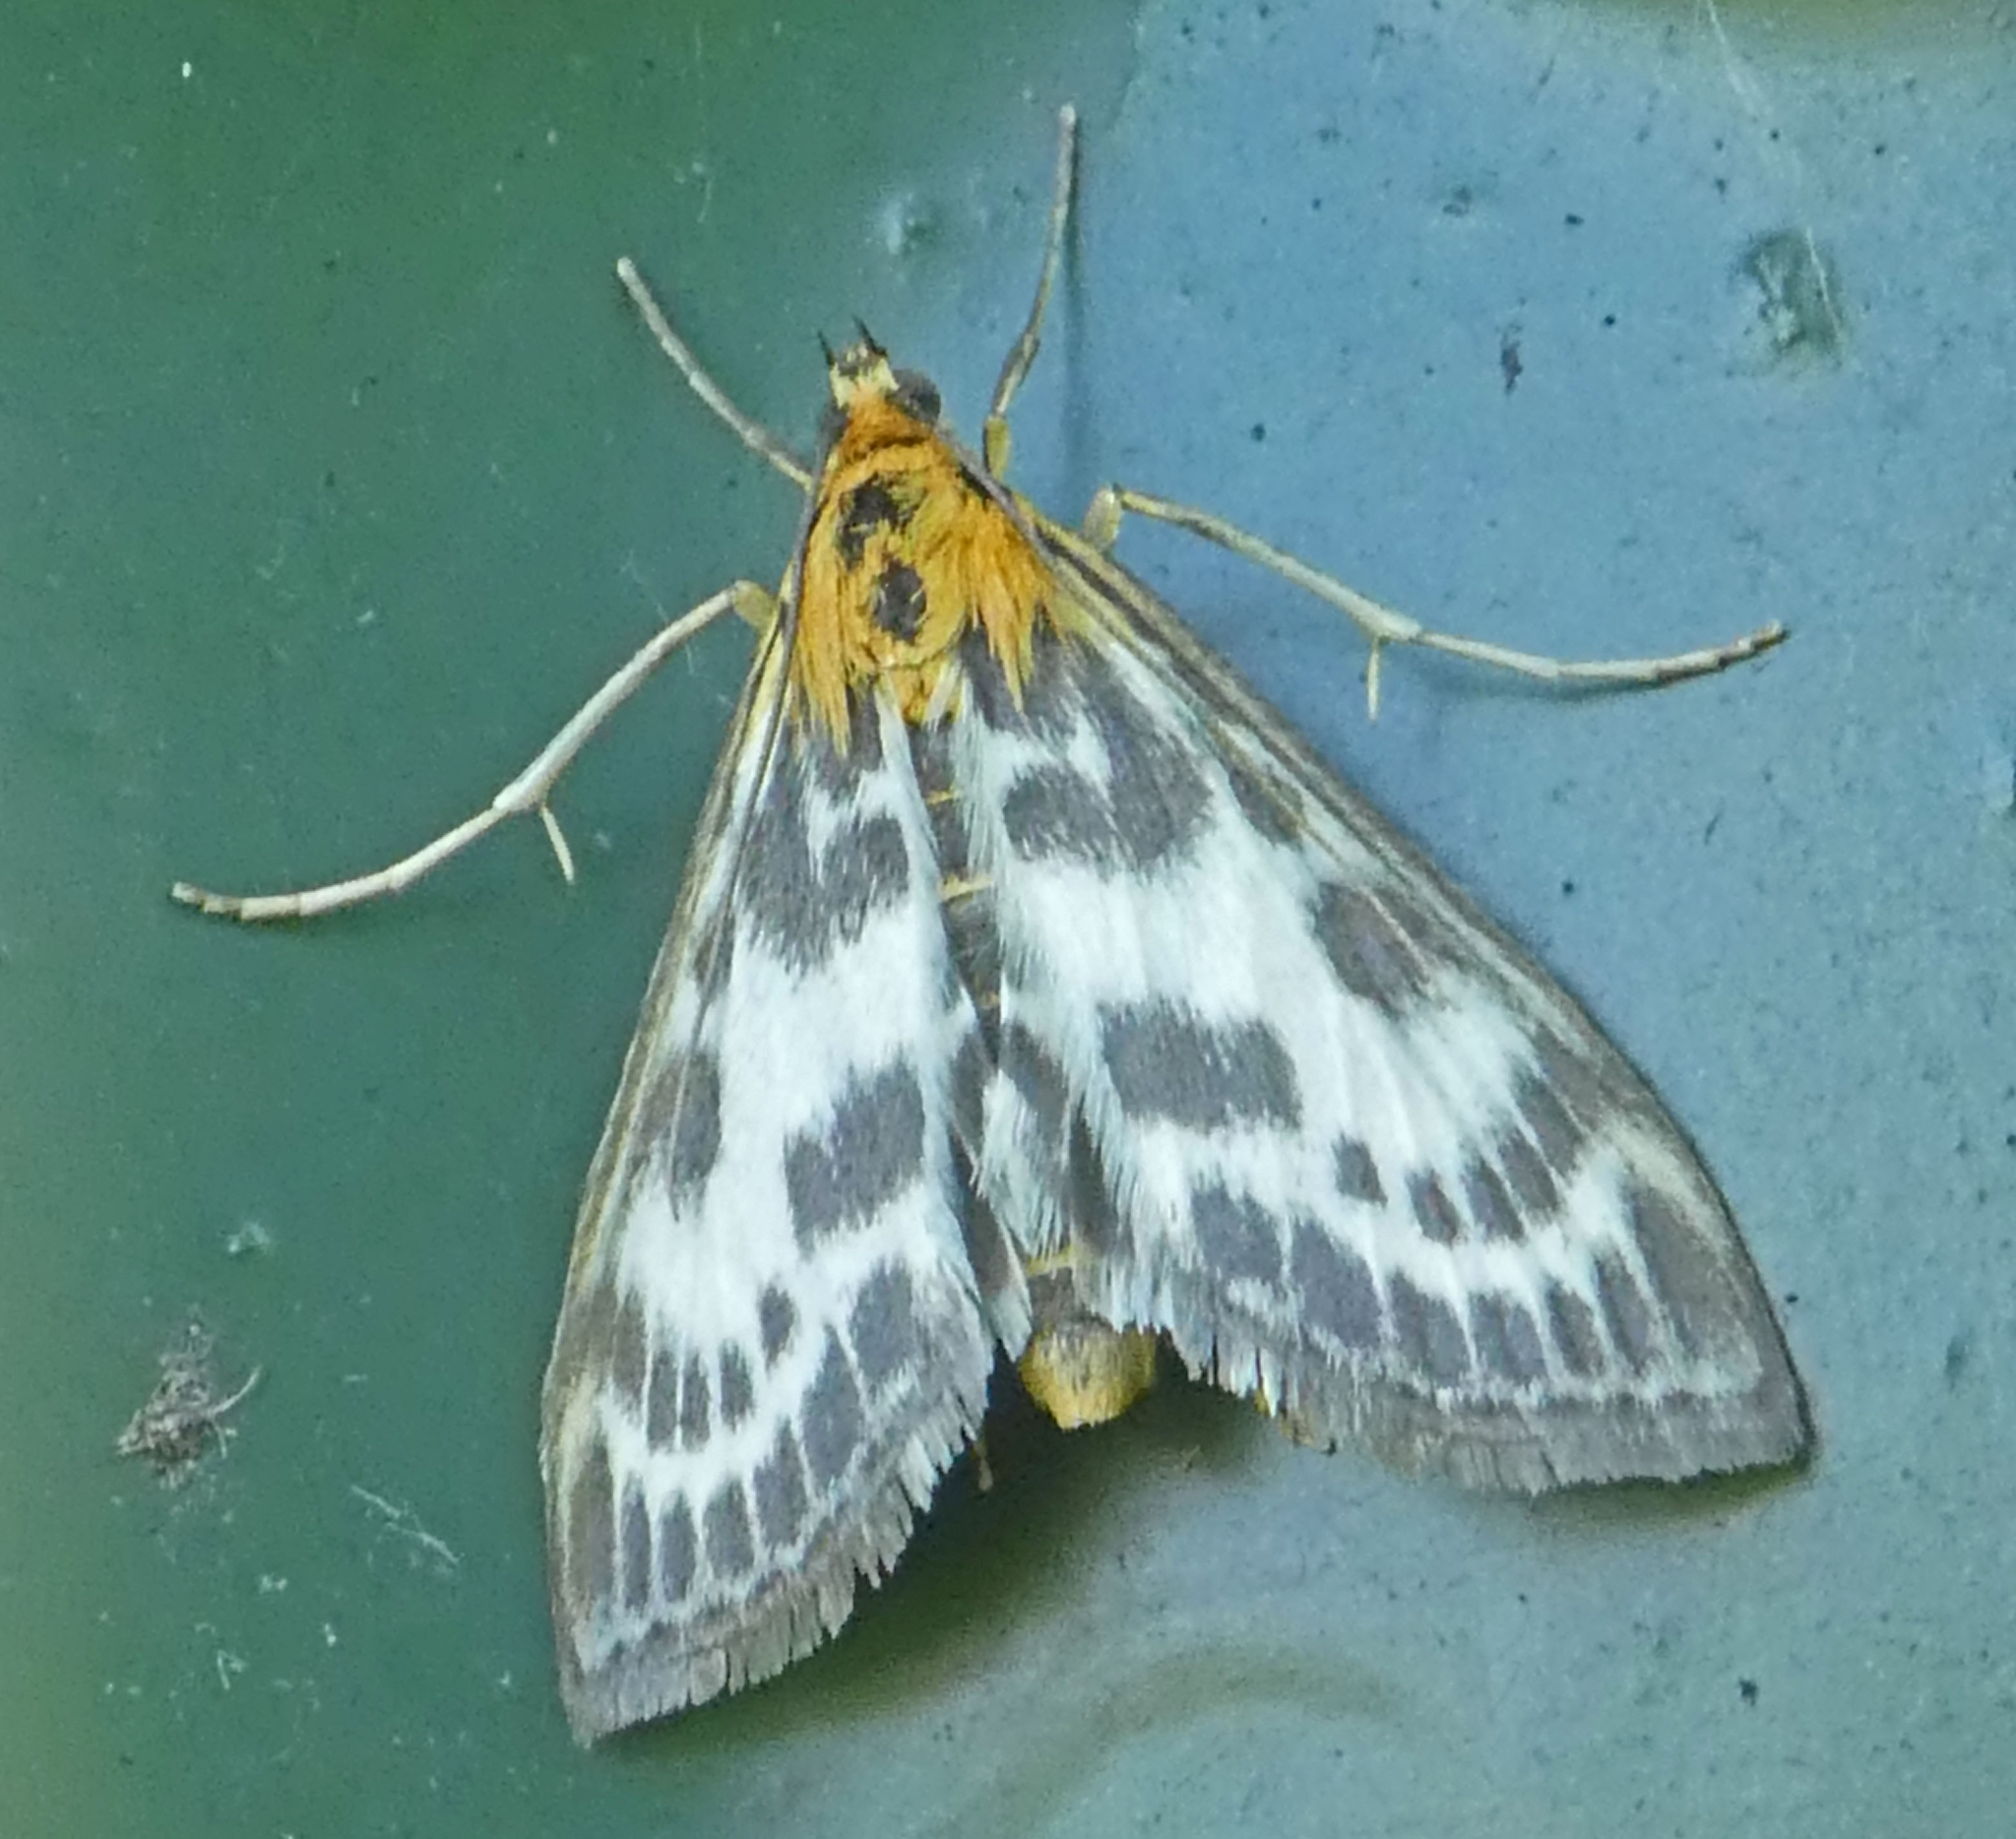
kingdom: Animalia
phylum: Arthropoda
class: Insecta
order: Lepidoptera
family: Crambidae
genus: Anania
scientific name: Anania hortulata
